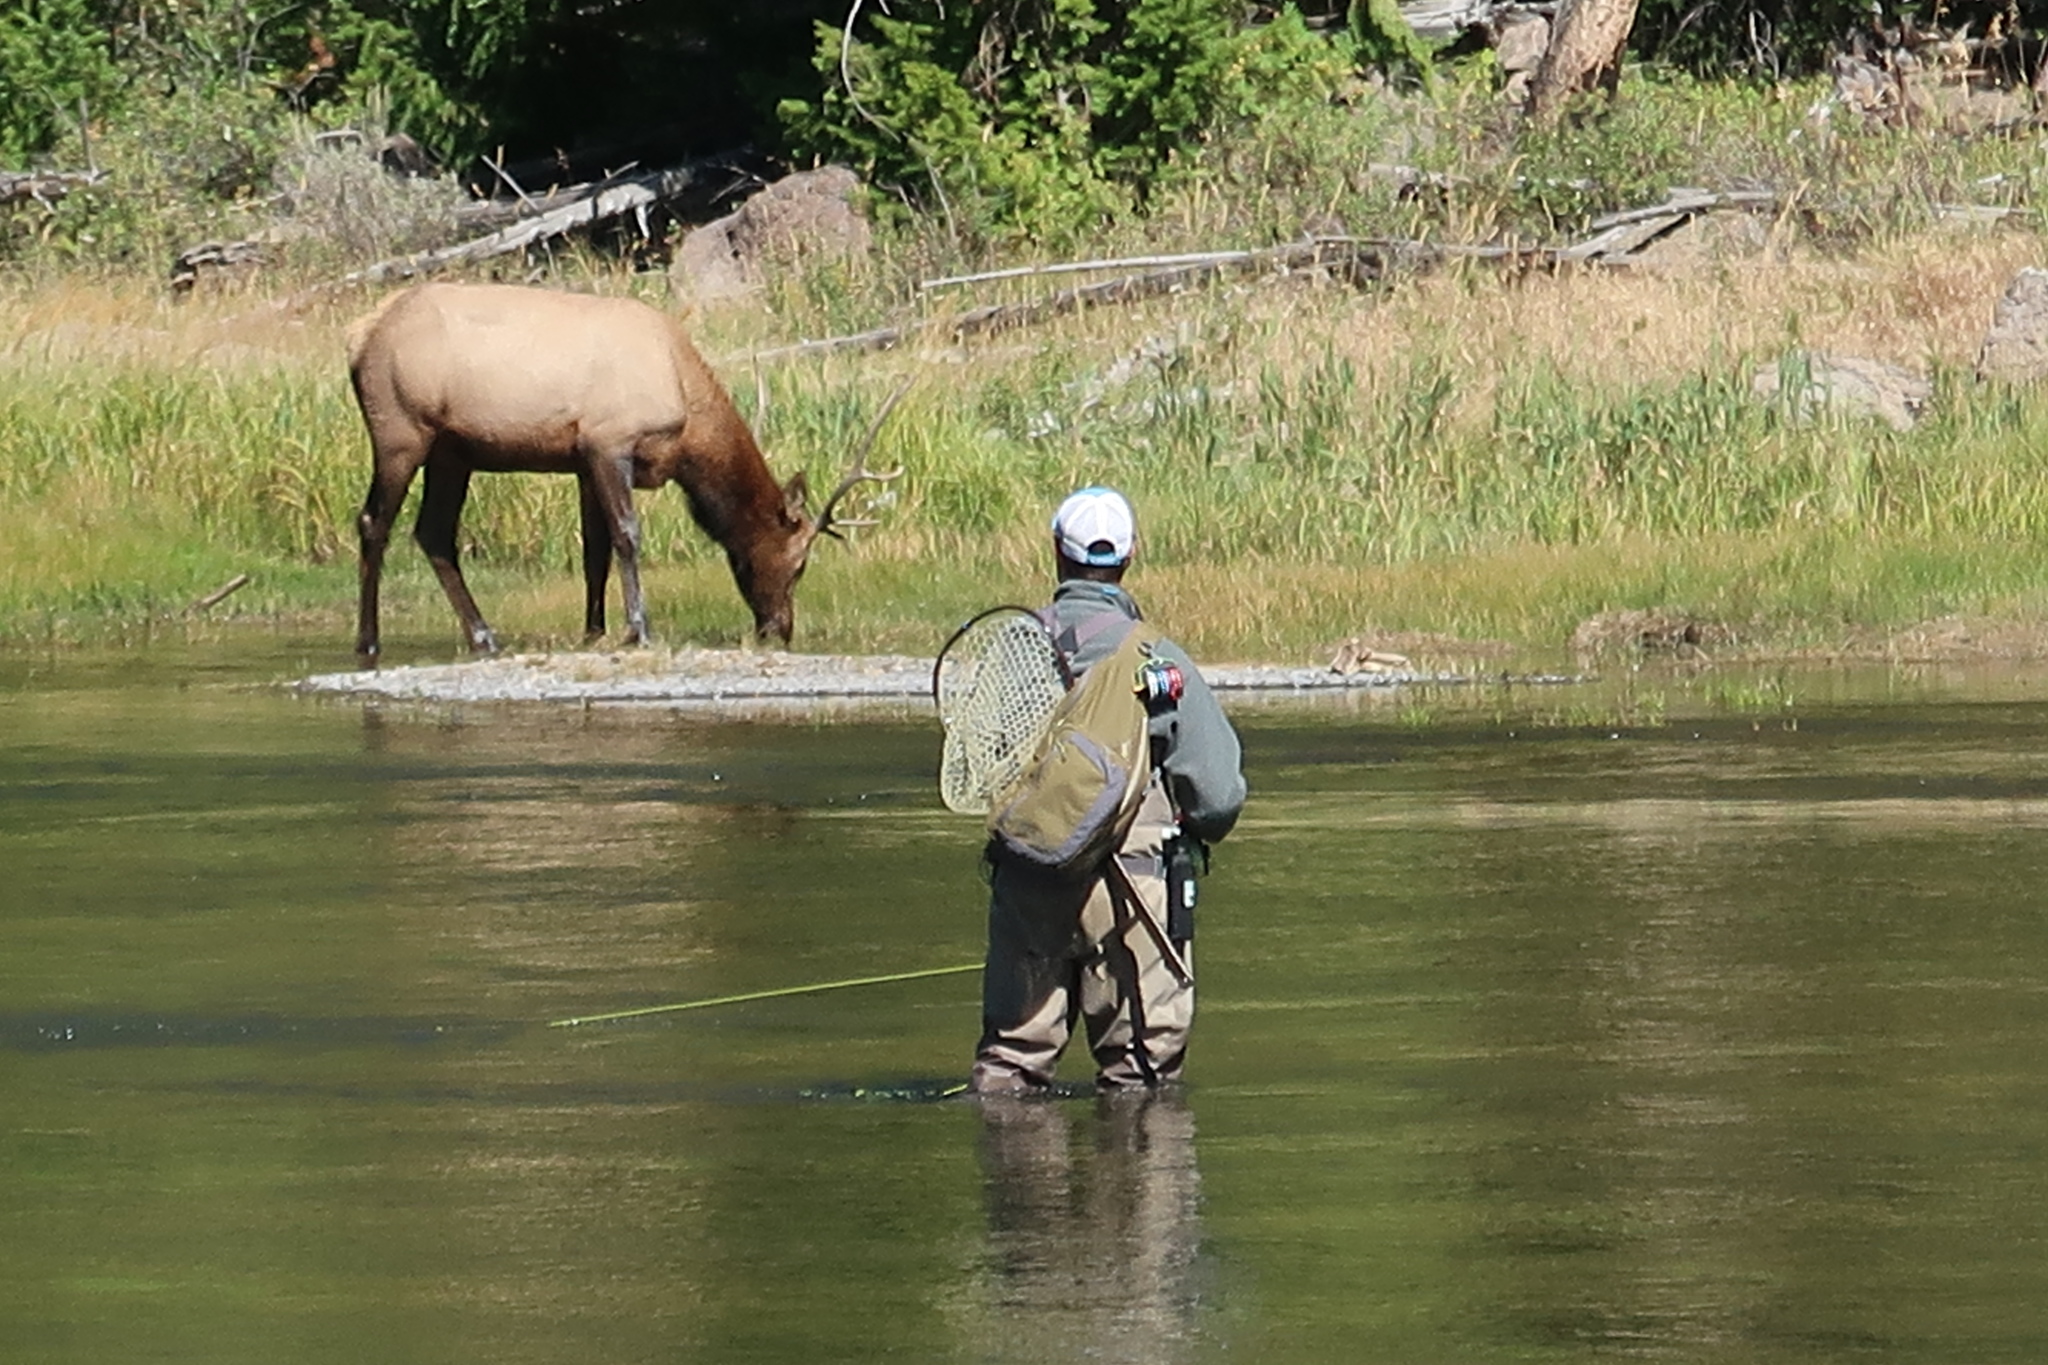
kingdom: Animalia
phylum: Chordata
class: Mammalia
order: Artiodactyla
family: Cervidae
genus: Cervus
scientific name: Cervus elaphus
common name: Red deer
